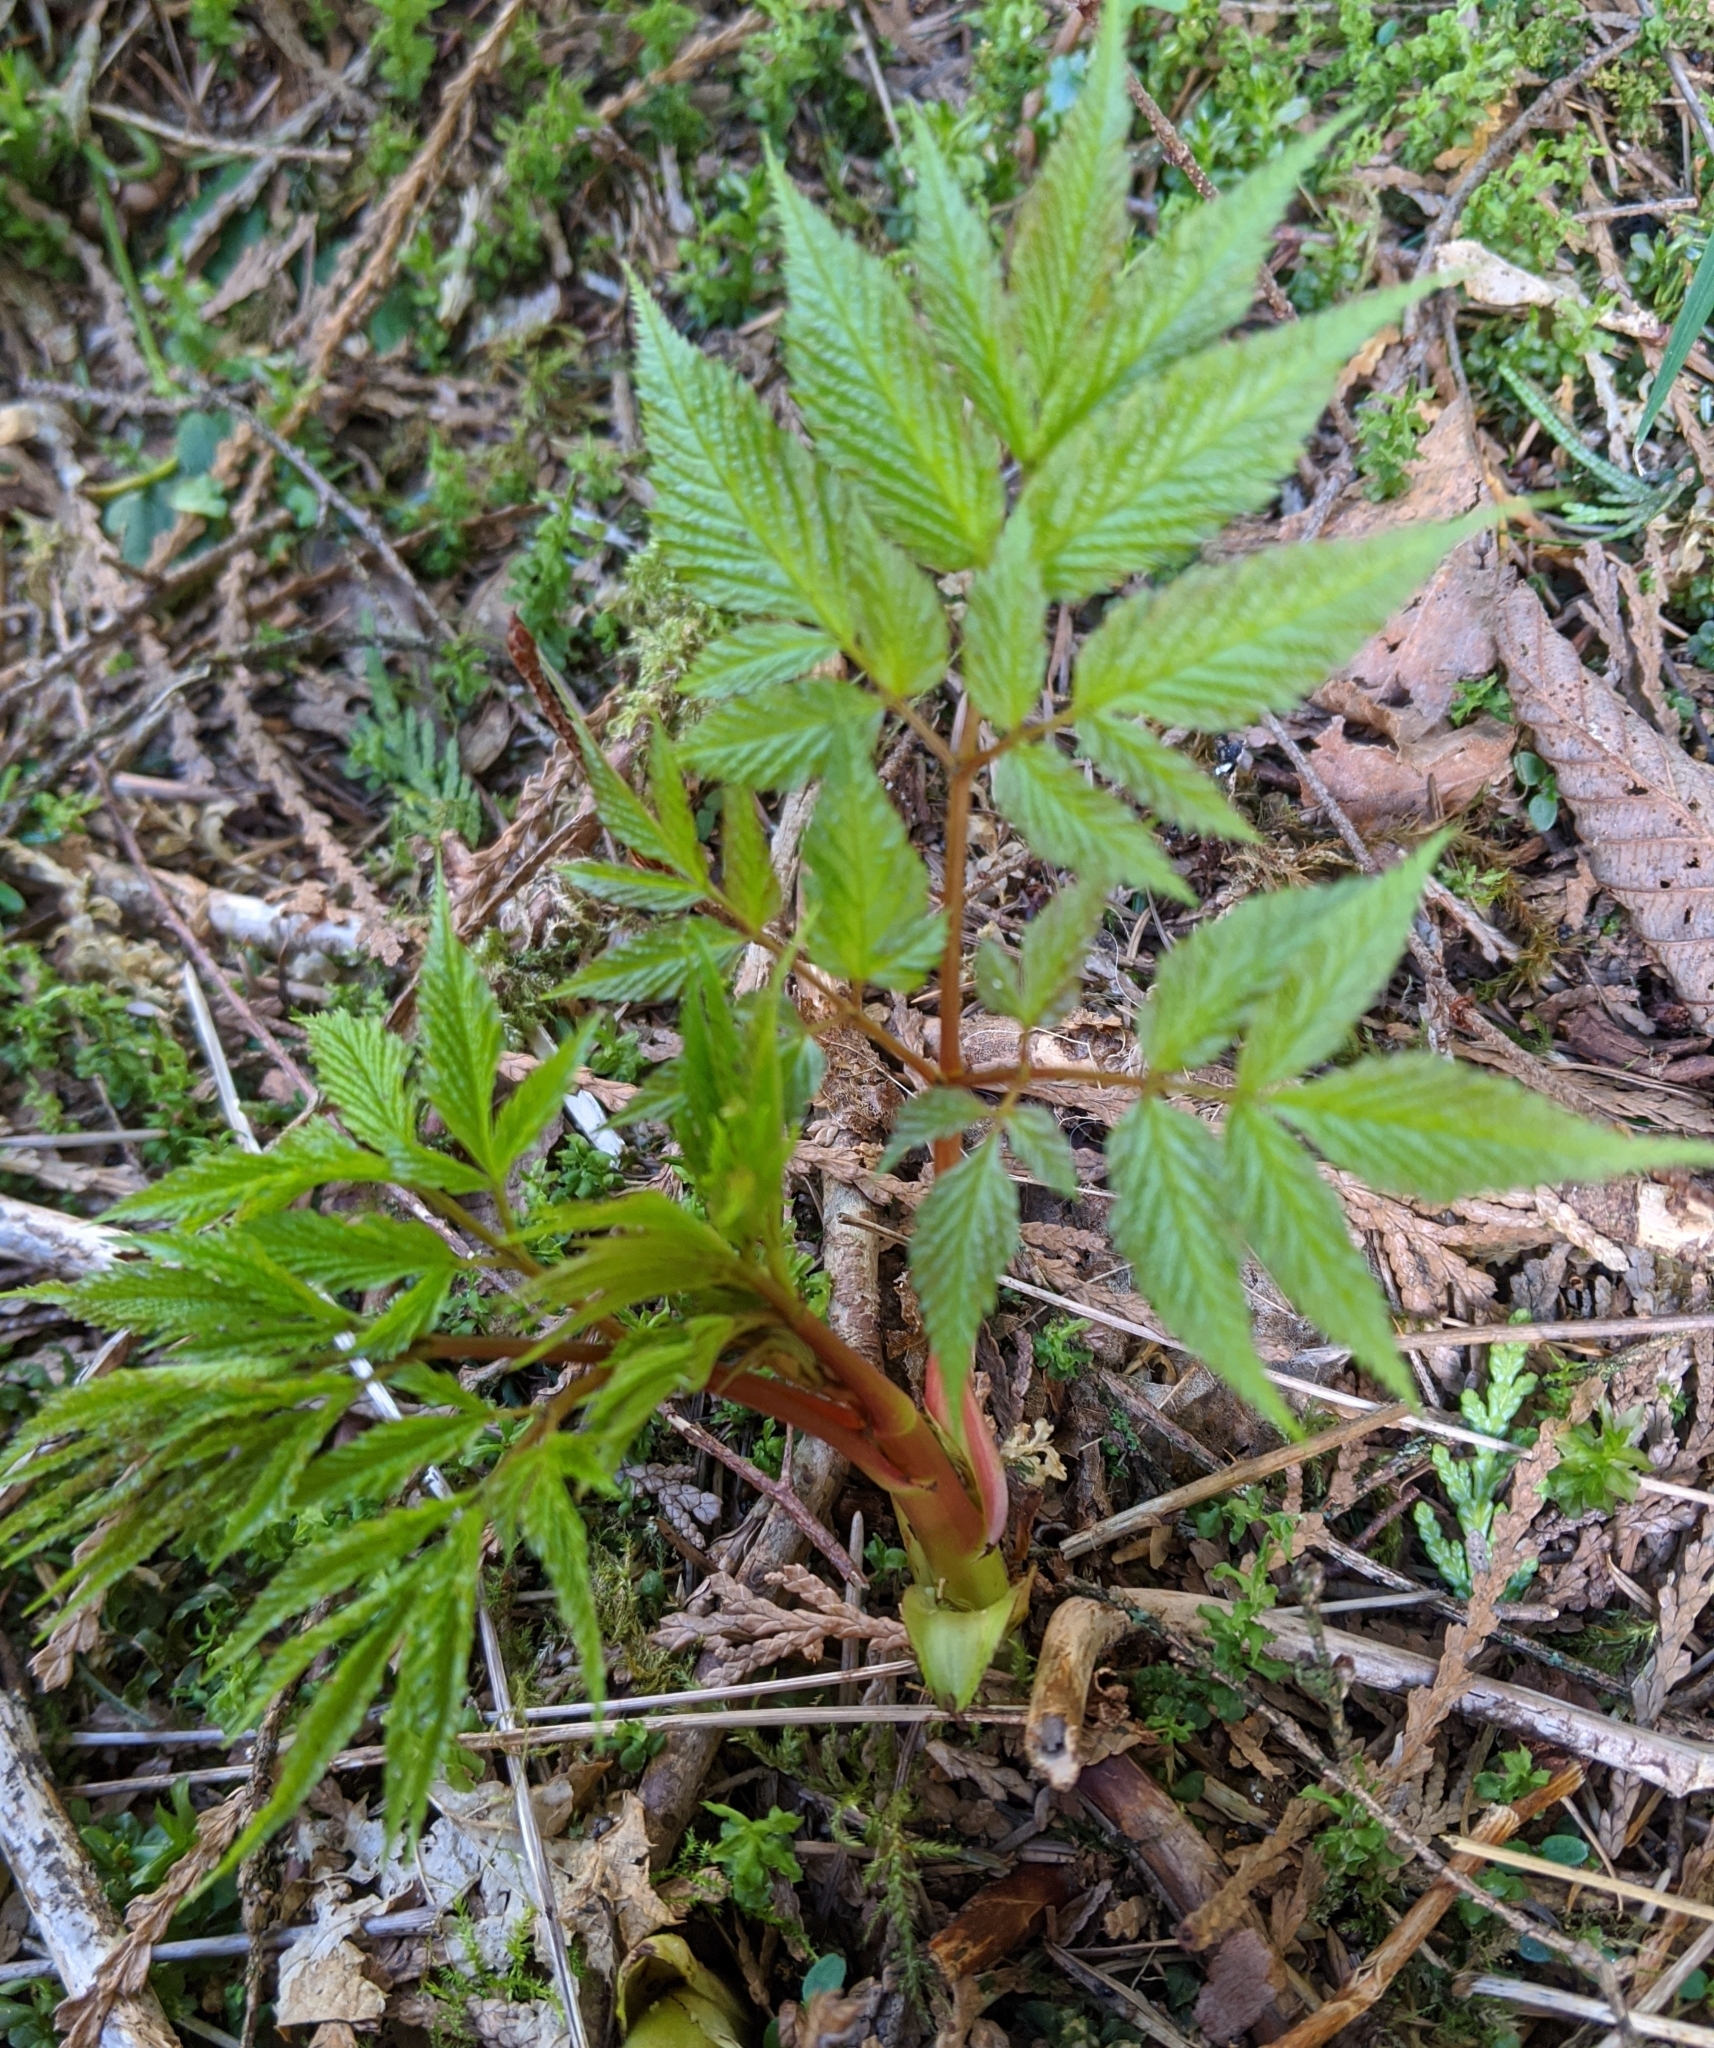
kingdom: Plantae
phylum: Tracheophyta
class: Magnoliopsida
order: Rosales
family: Rosaceae
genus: Aruncus
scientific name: Aruncus dioicus
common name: Buck's-beard
